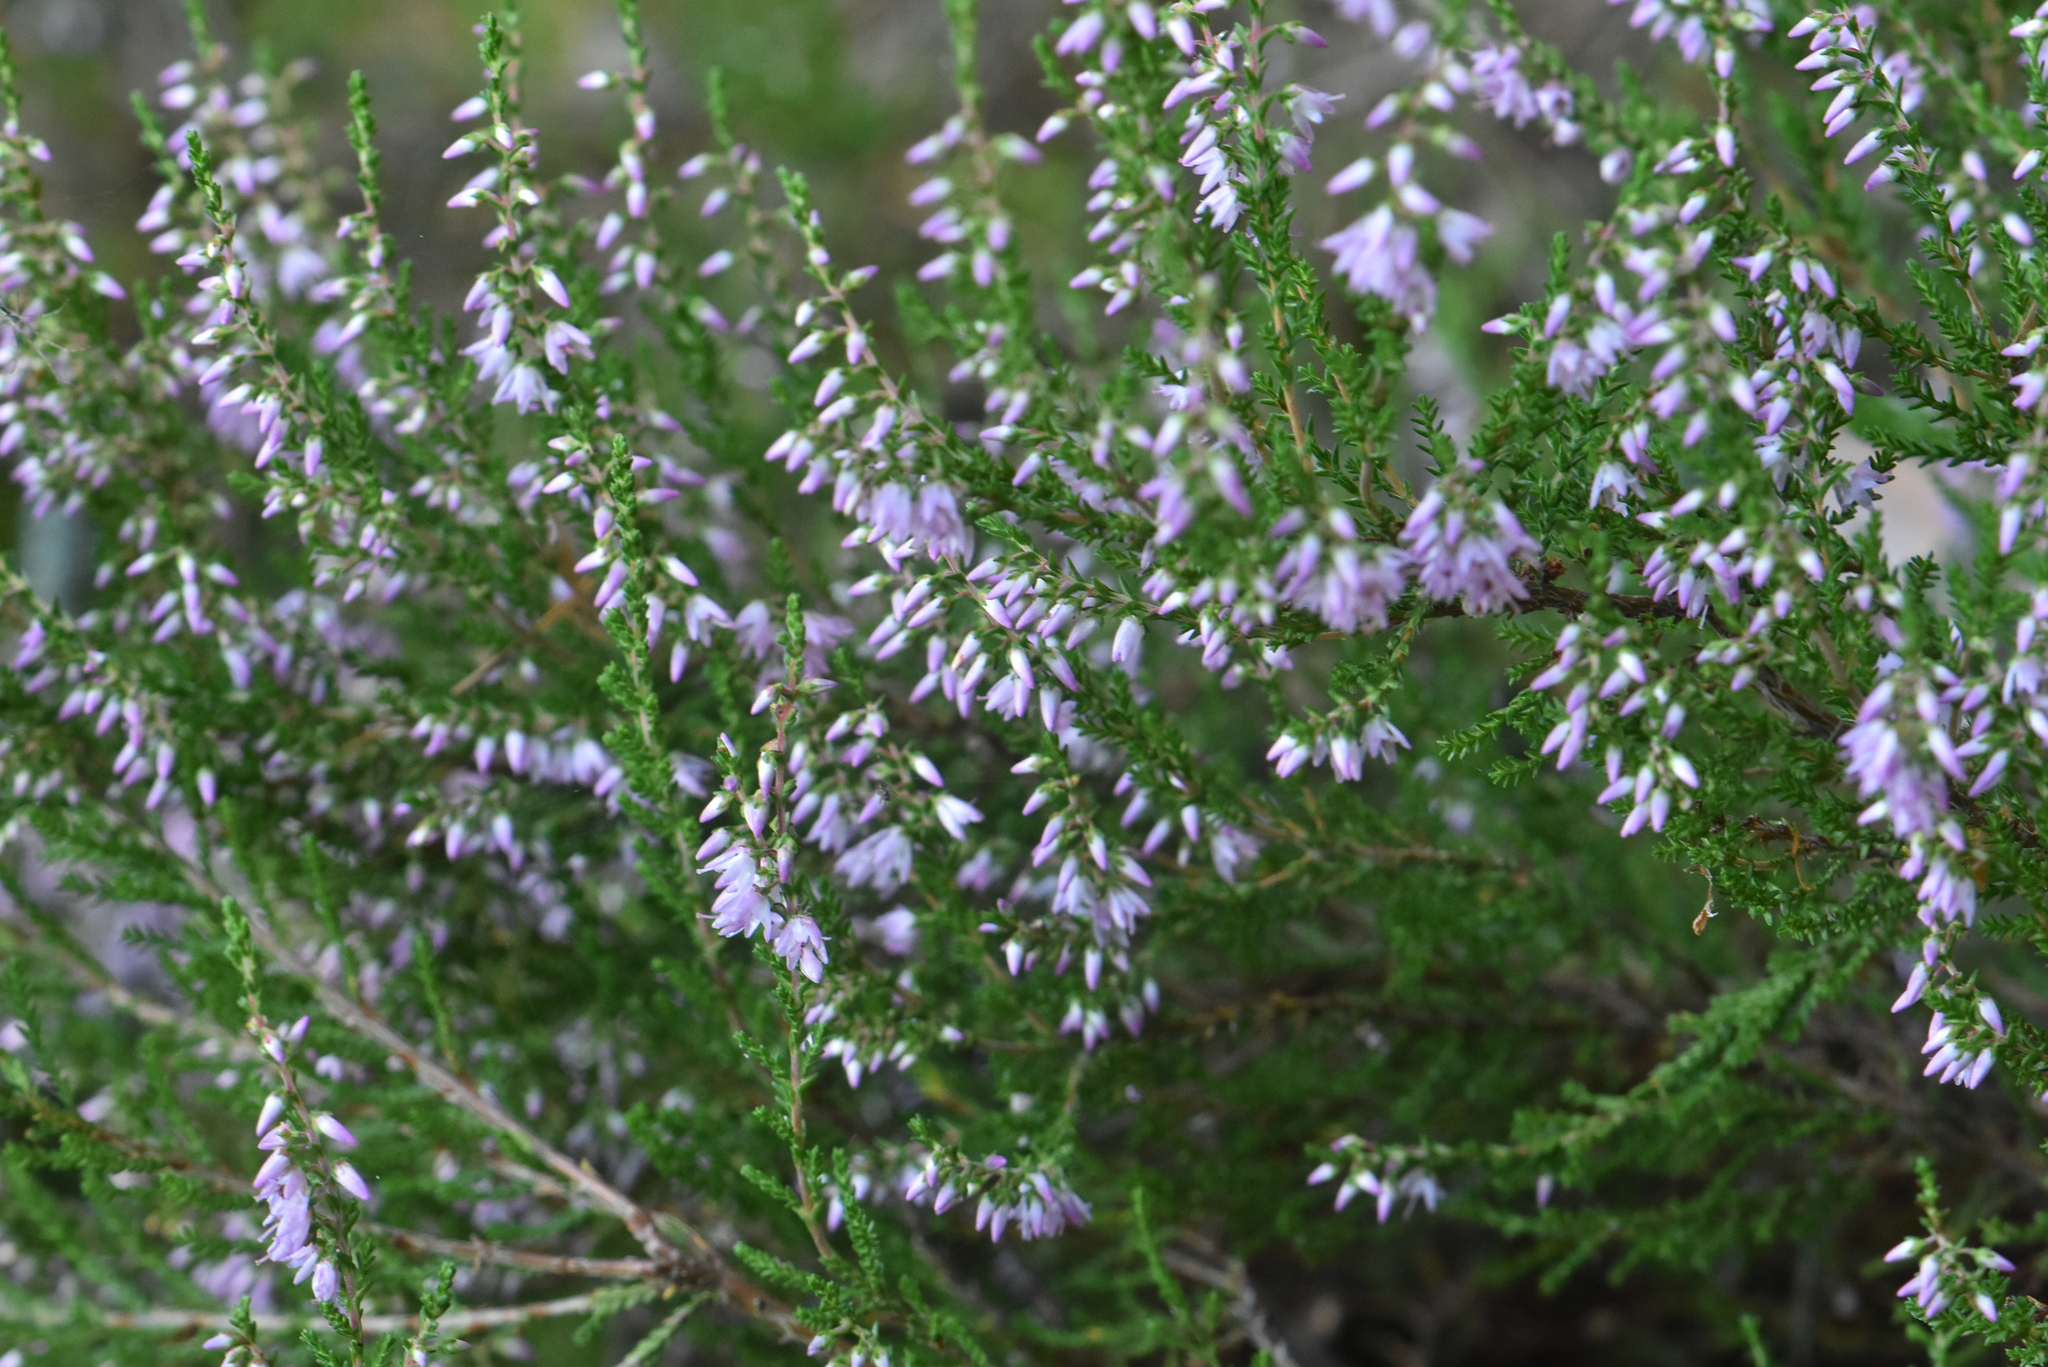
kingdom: Plantae
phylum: Tracheophyta
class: Magnoliopsida
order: Ericales
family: Ericaceae
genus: Calluna
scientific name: Calluna vulgaris
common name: Heather
